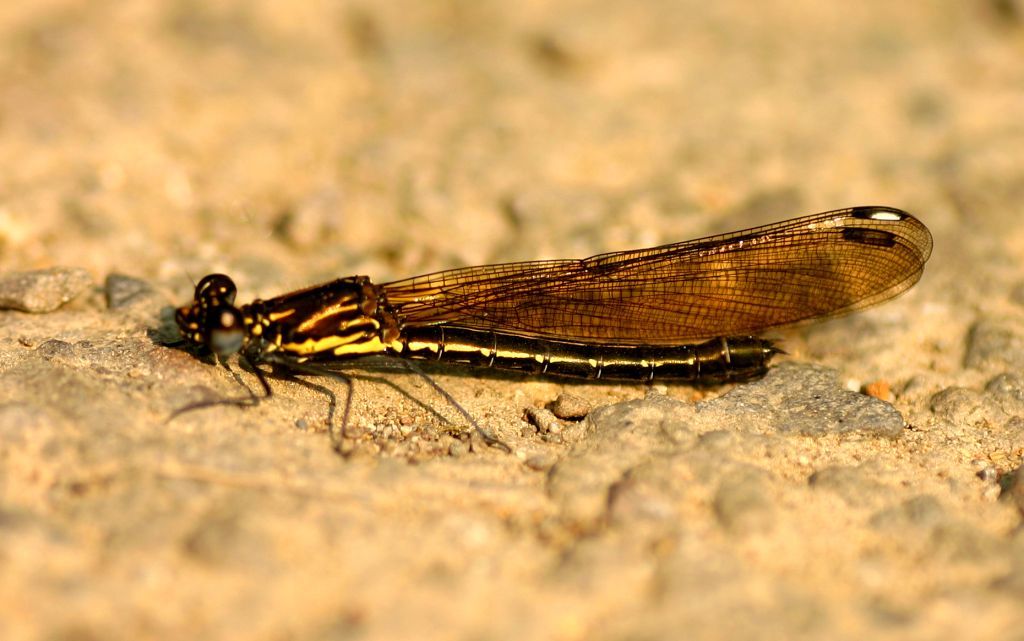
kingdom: Animalia
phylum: Arthropoda
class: Insecta
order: Odonata
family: Chlorocyphidae
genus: Aristocypha
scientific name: Aristocypha fenestrella
